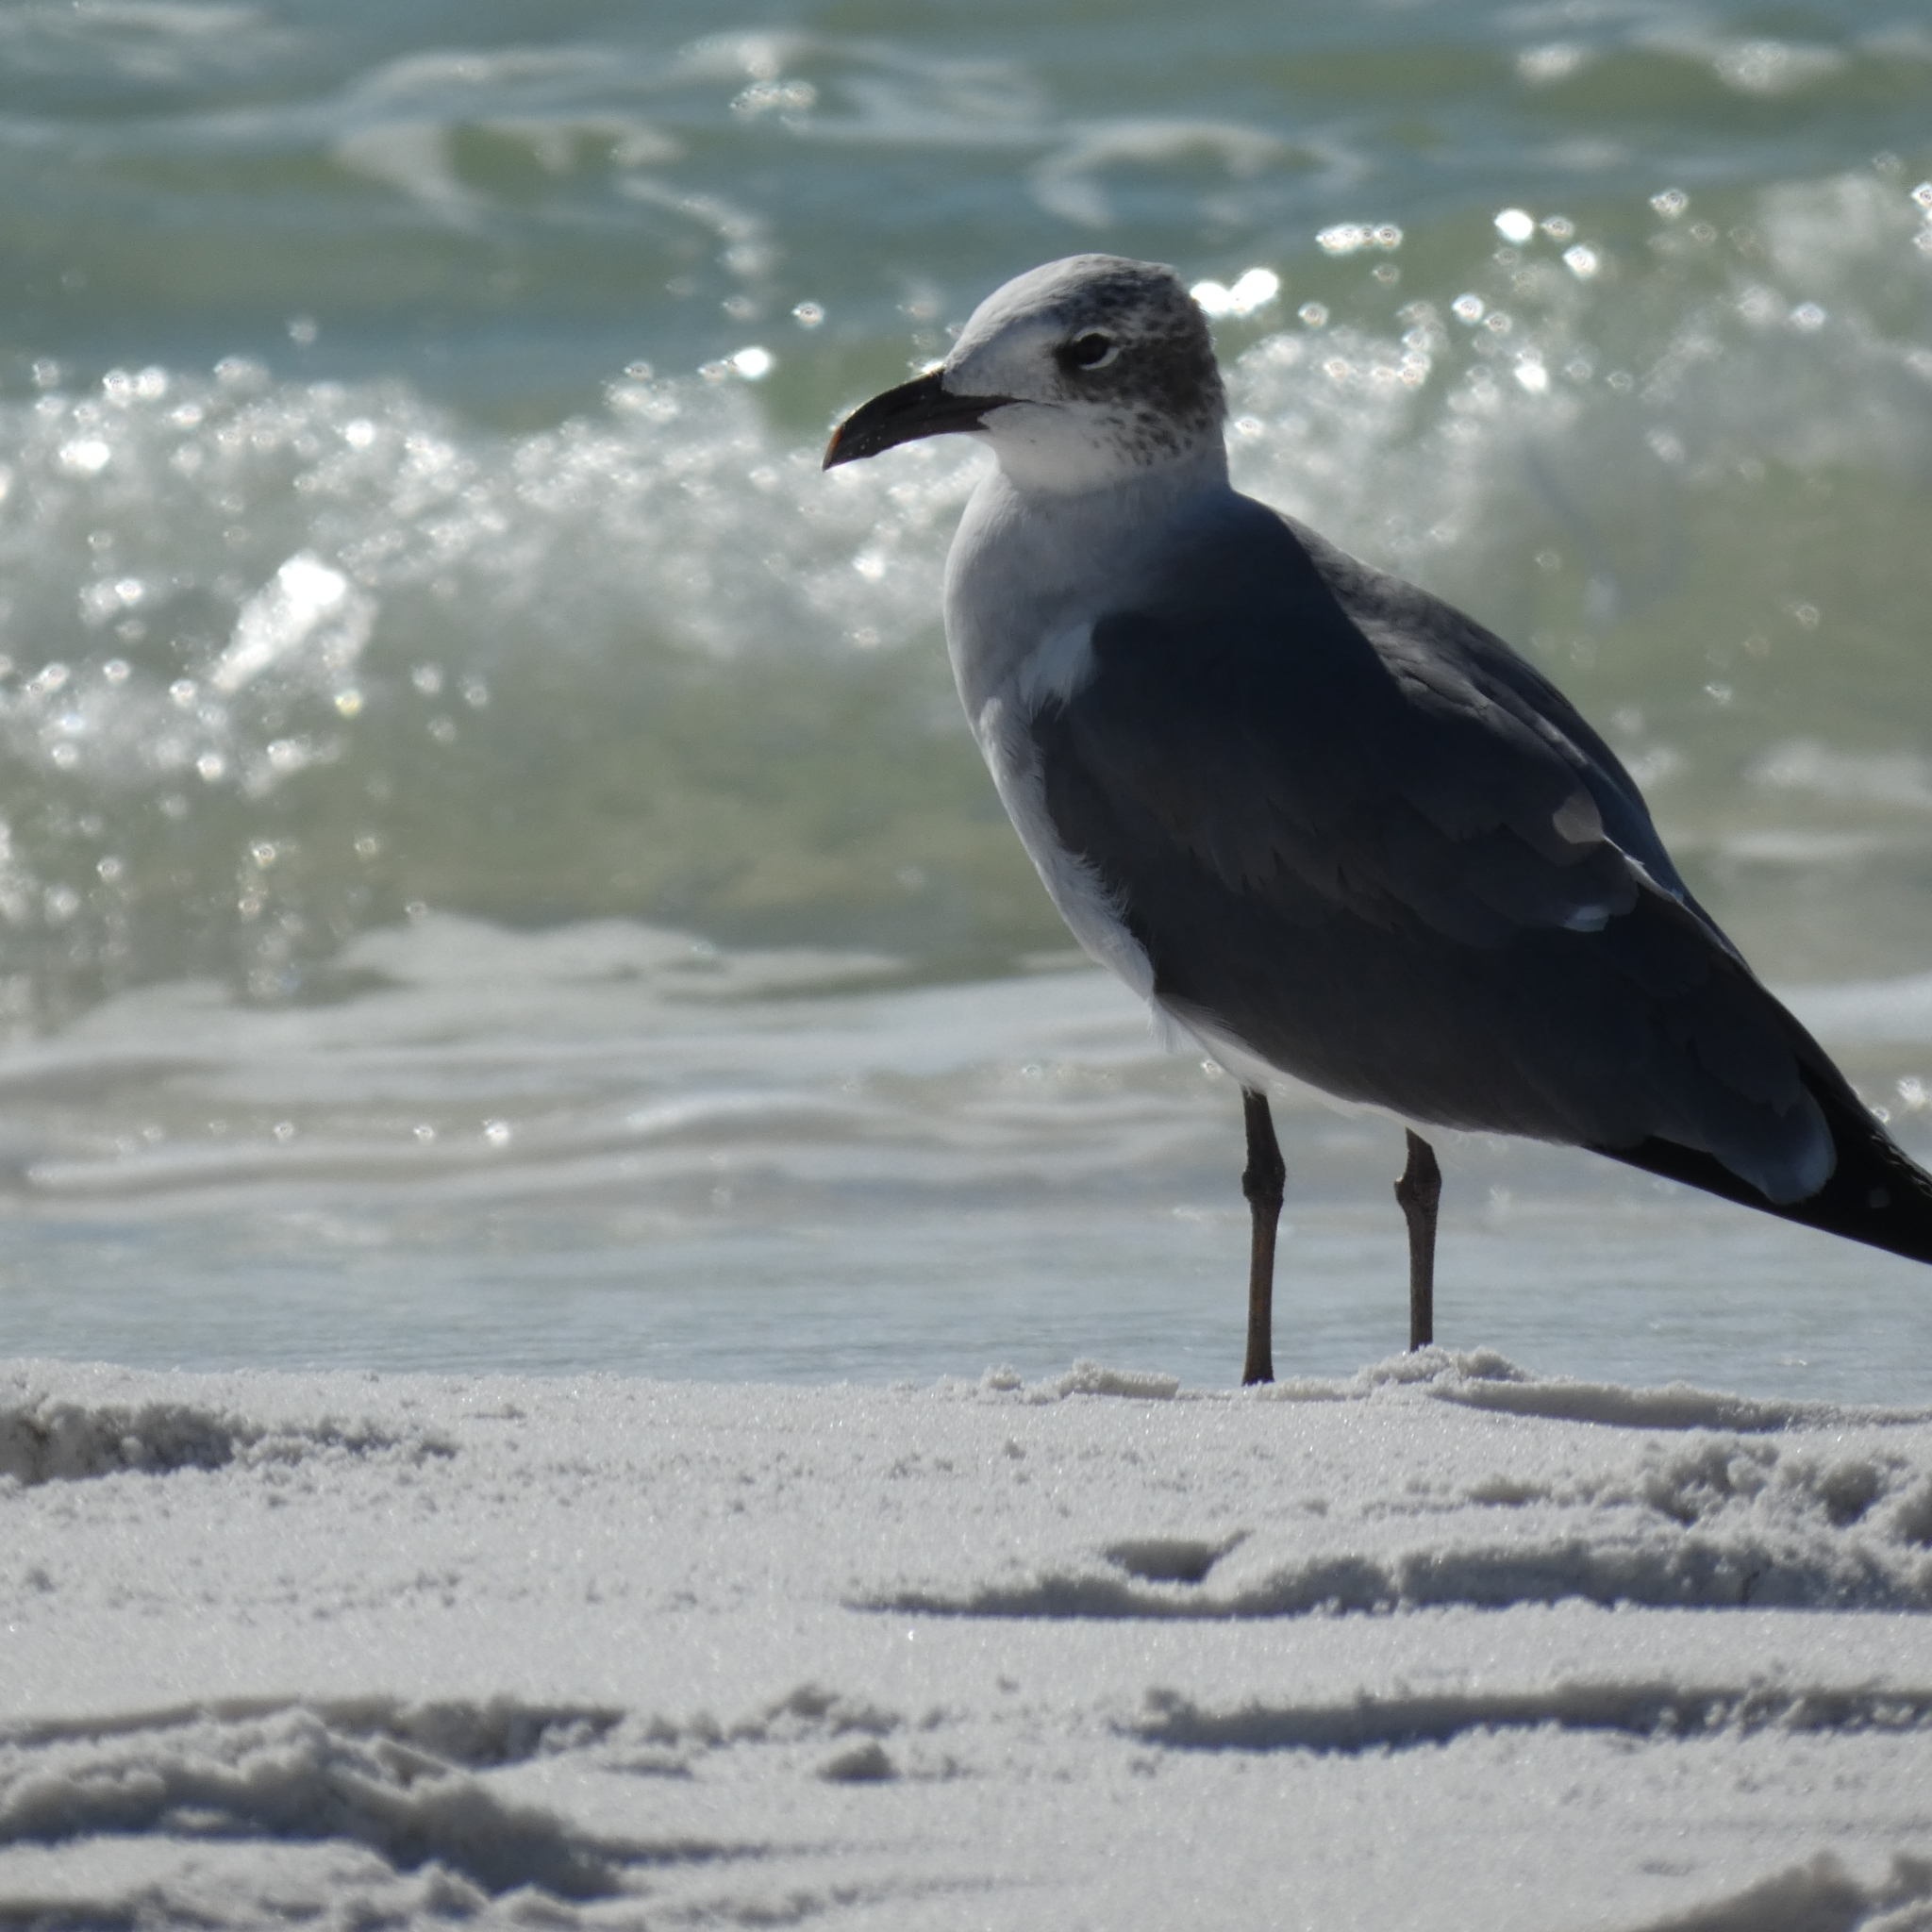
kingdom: Animalia
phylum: Chordata
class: Aves
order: Charadriiformes
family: Laridae
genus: Leucophaeus
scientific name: Leucophaeus atricilla
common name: Laughing gull
